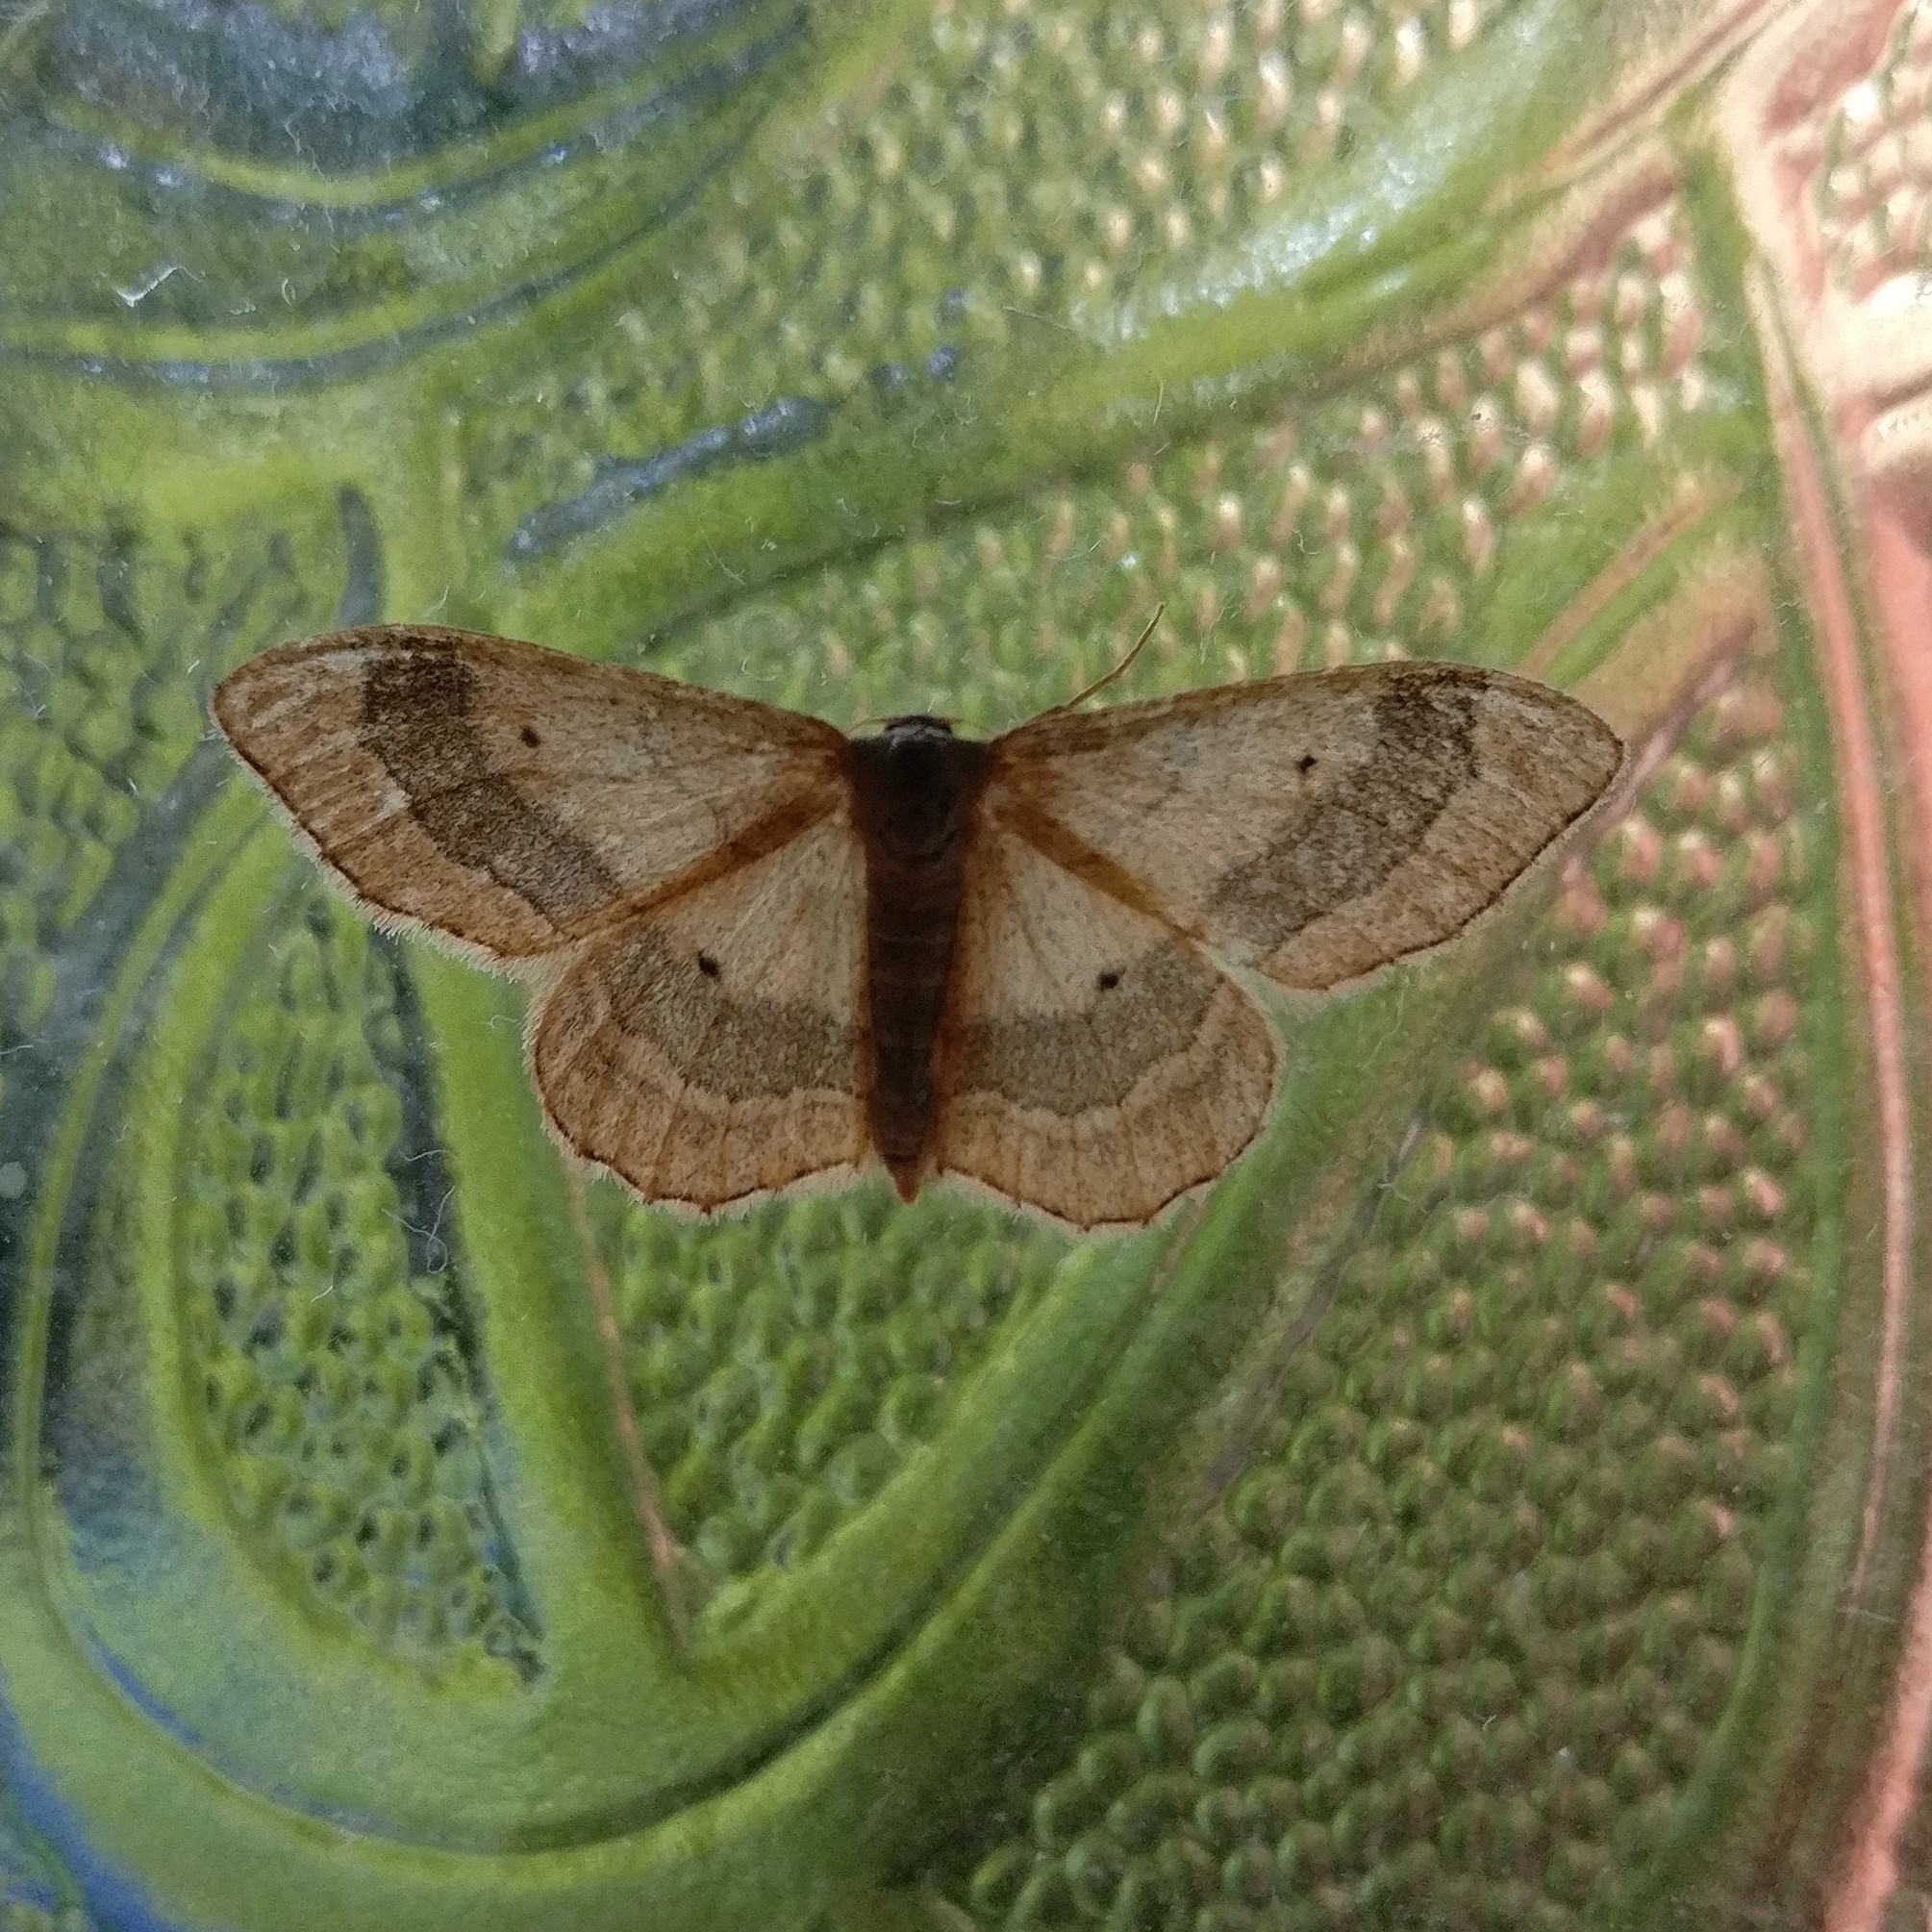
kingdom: Animalia
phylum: Arthropoda
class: Insecta
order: Lepidoptera
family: Geometridae
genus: Idaea
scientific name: Idaea aversata
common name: Riband wave
